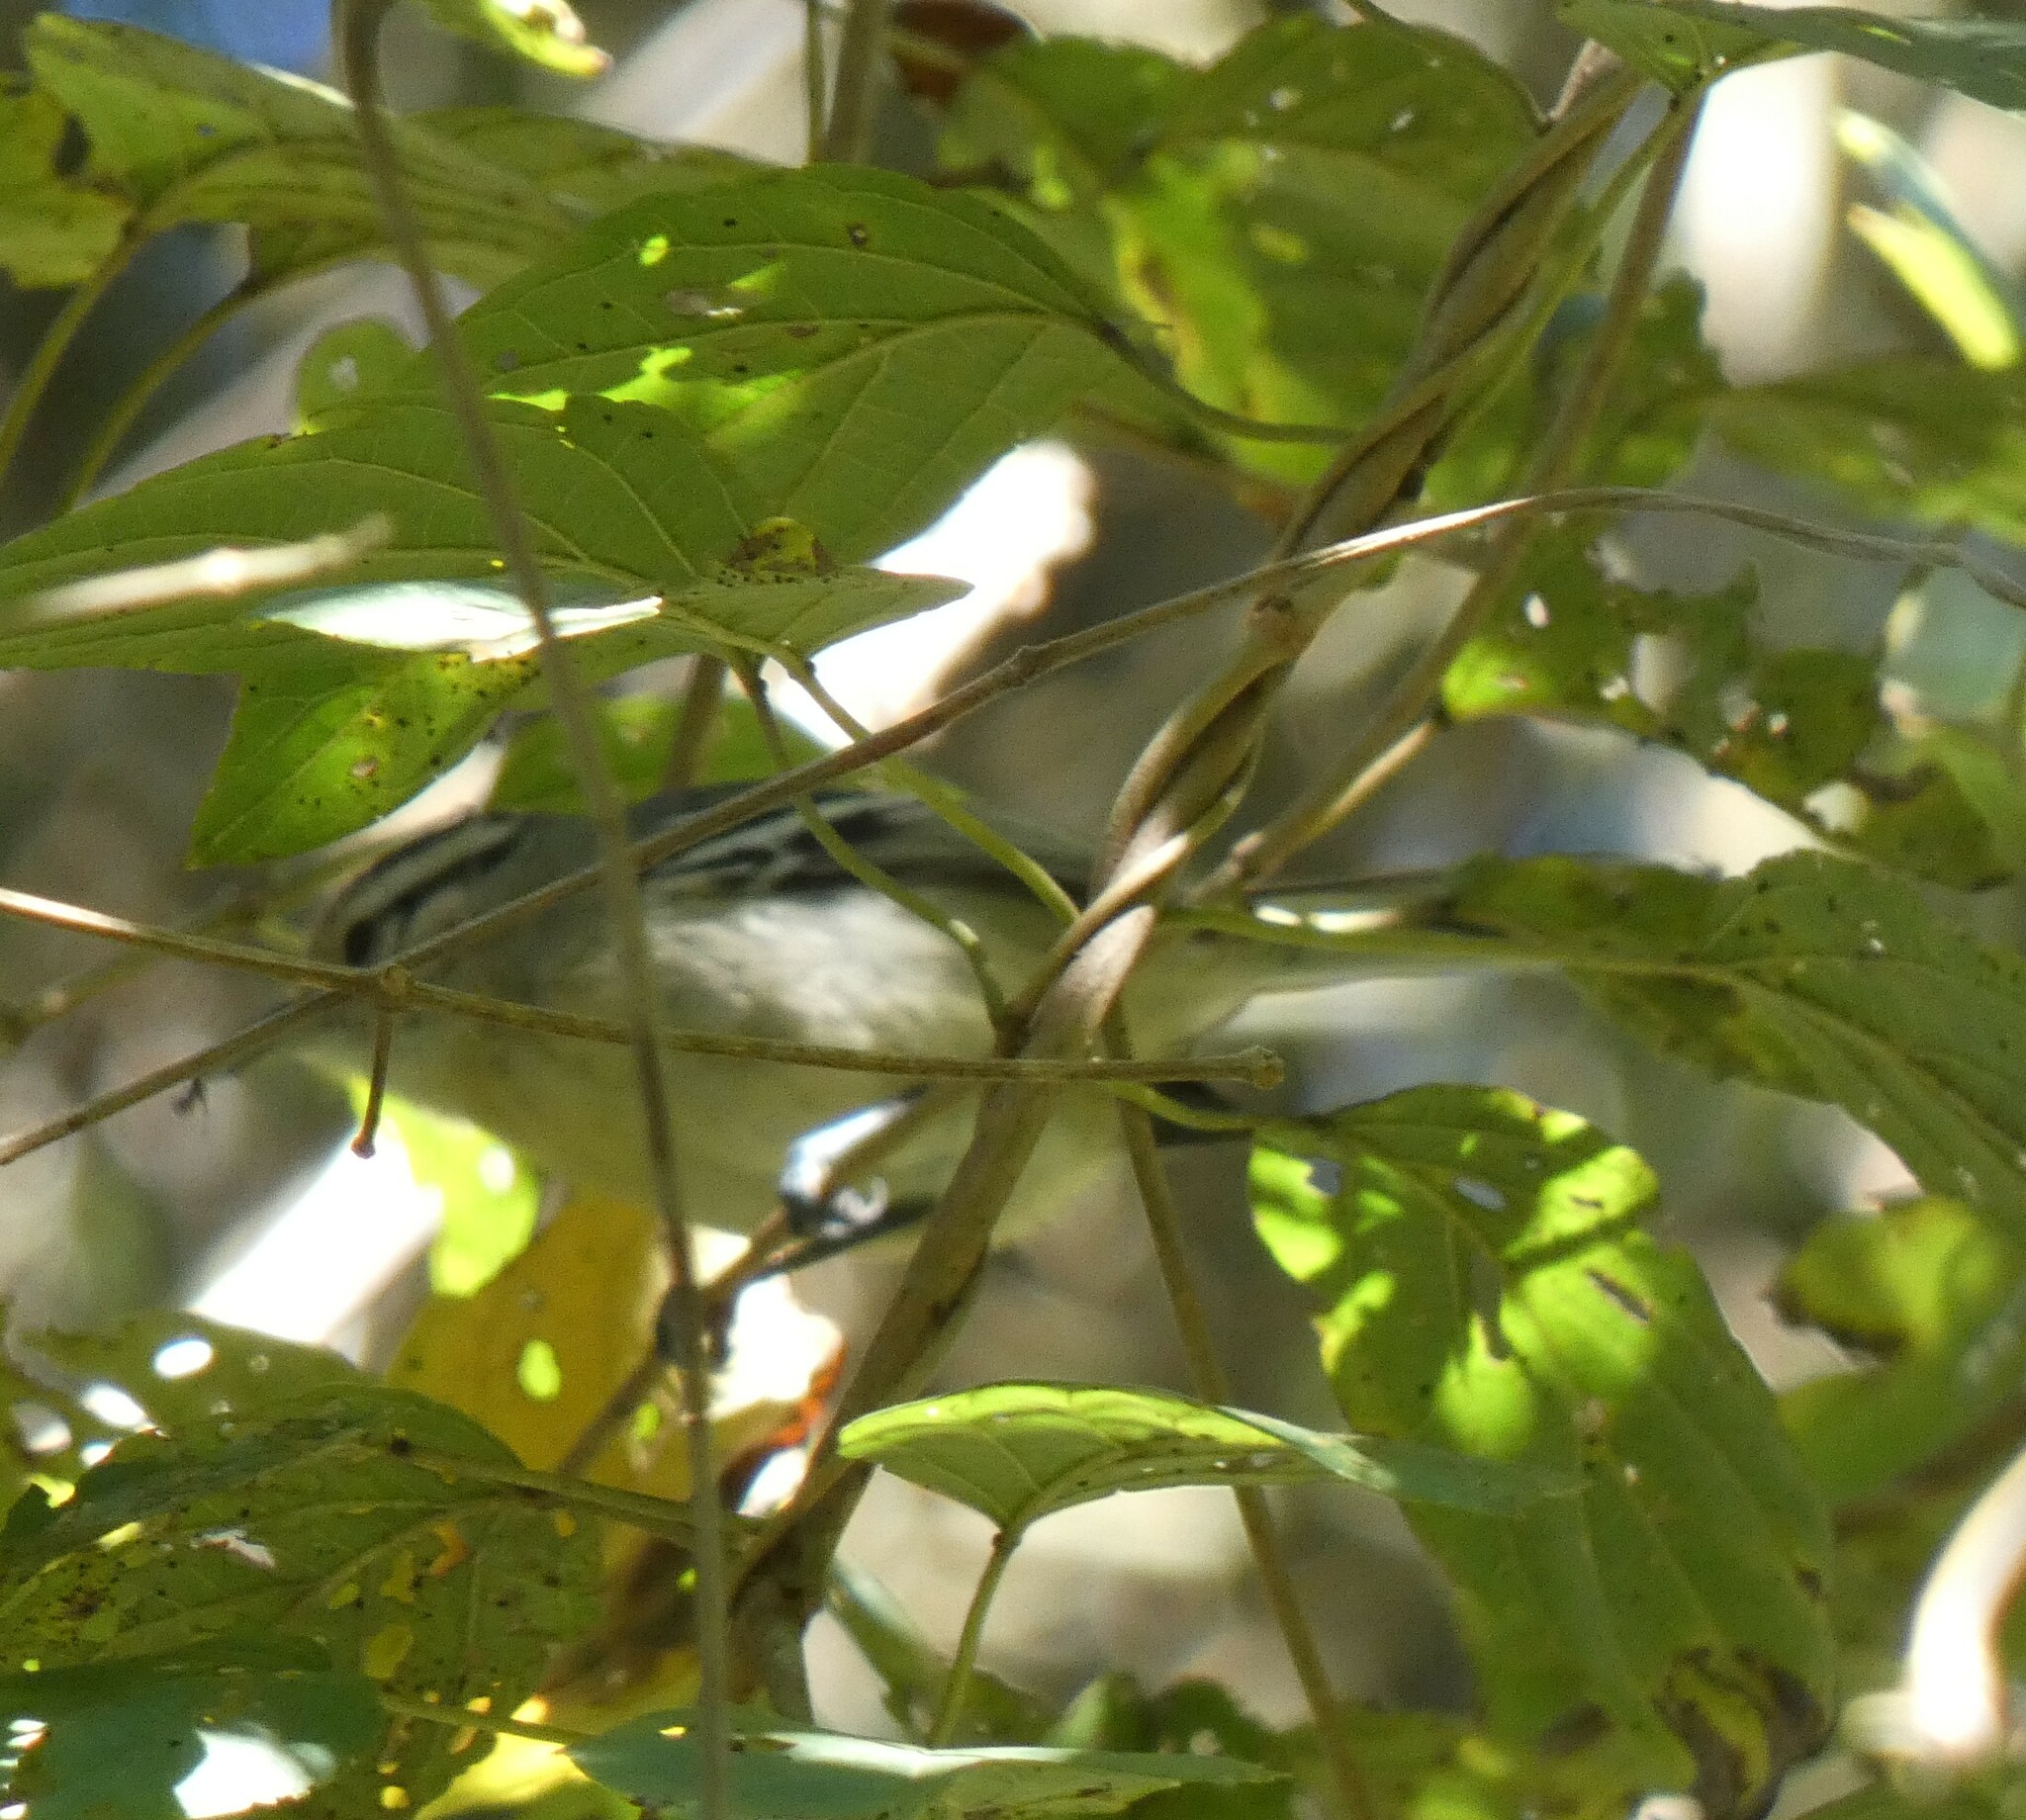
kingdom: Animalia
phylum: Chordata
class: Aves
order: Passeriformes
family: Thamnophilidae
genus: Herpsilochmus
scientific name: Herpsilochmus atricapillus
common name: Black-capped antwren
